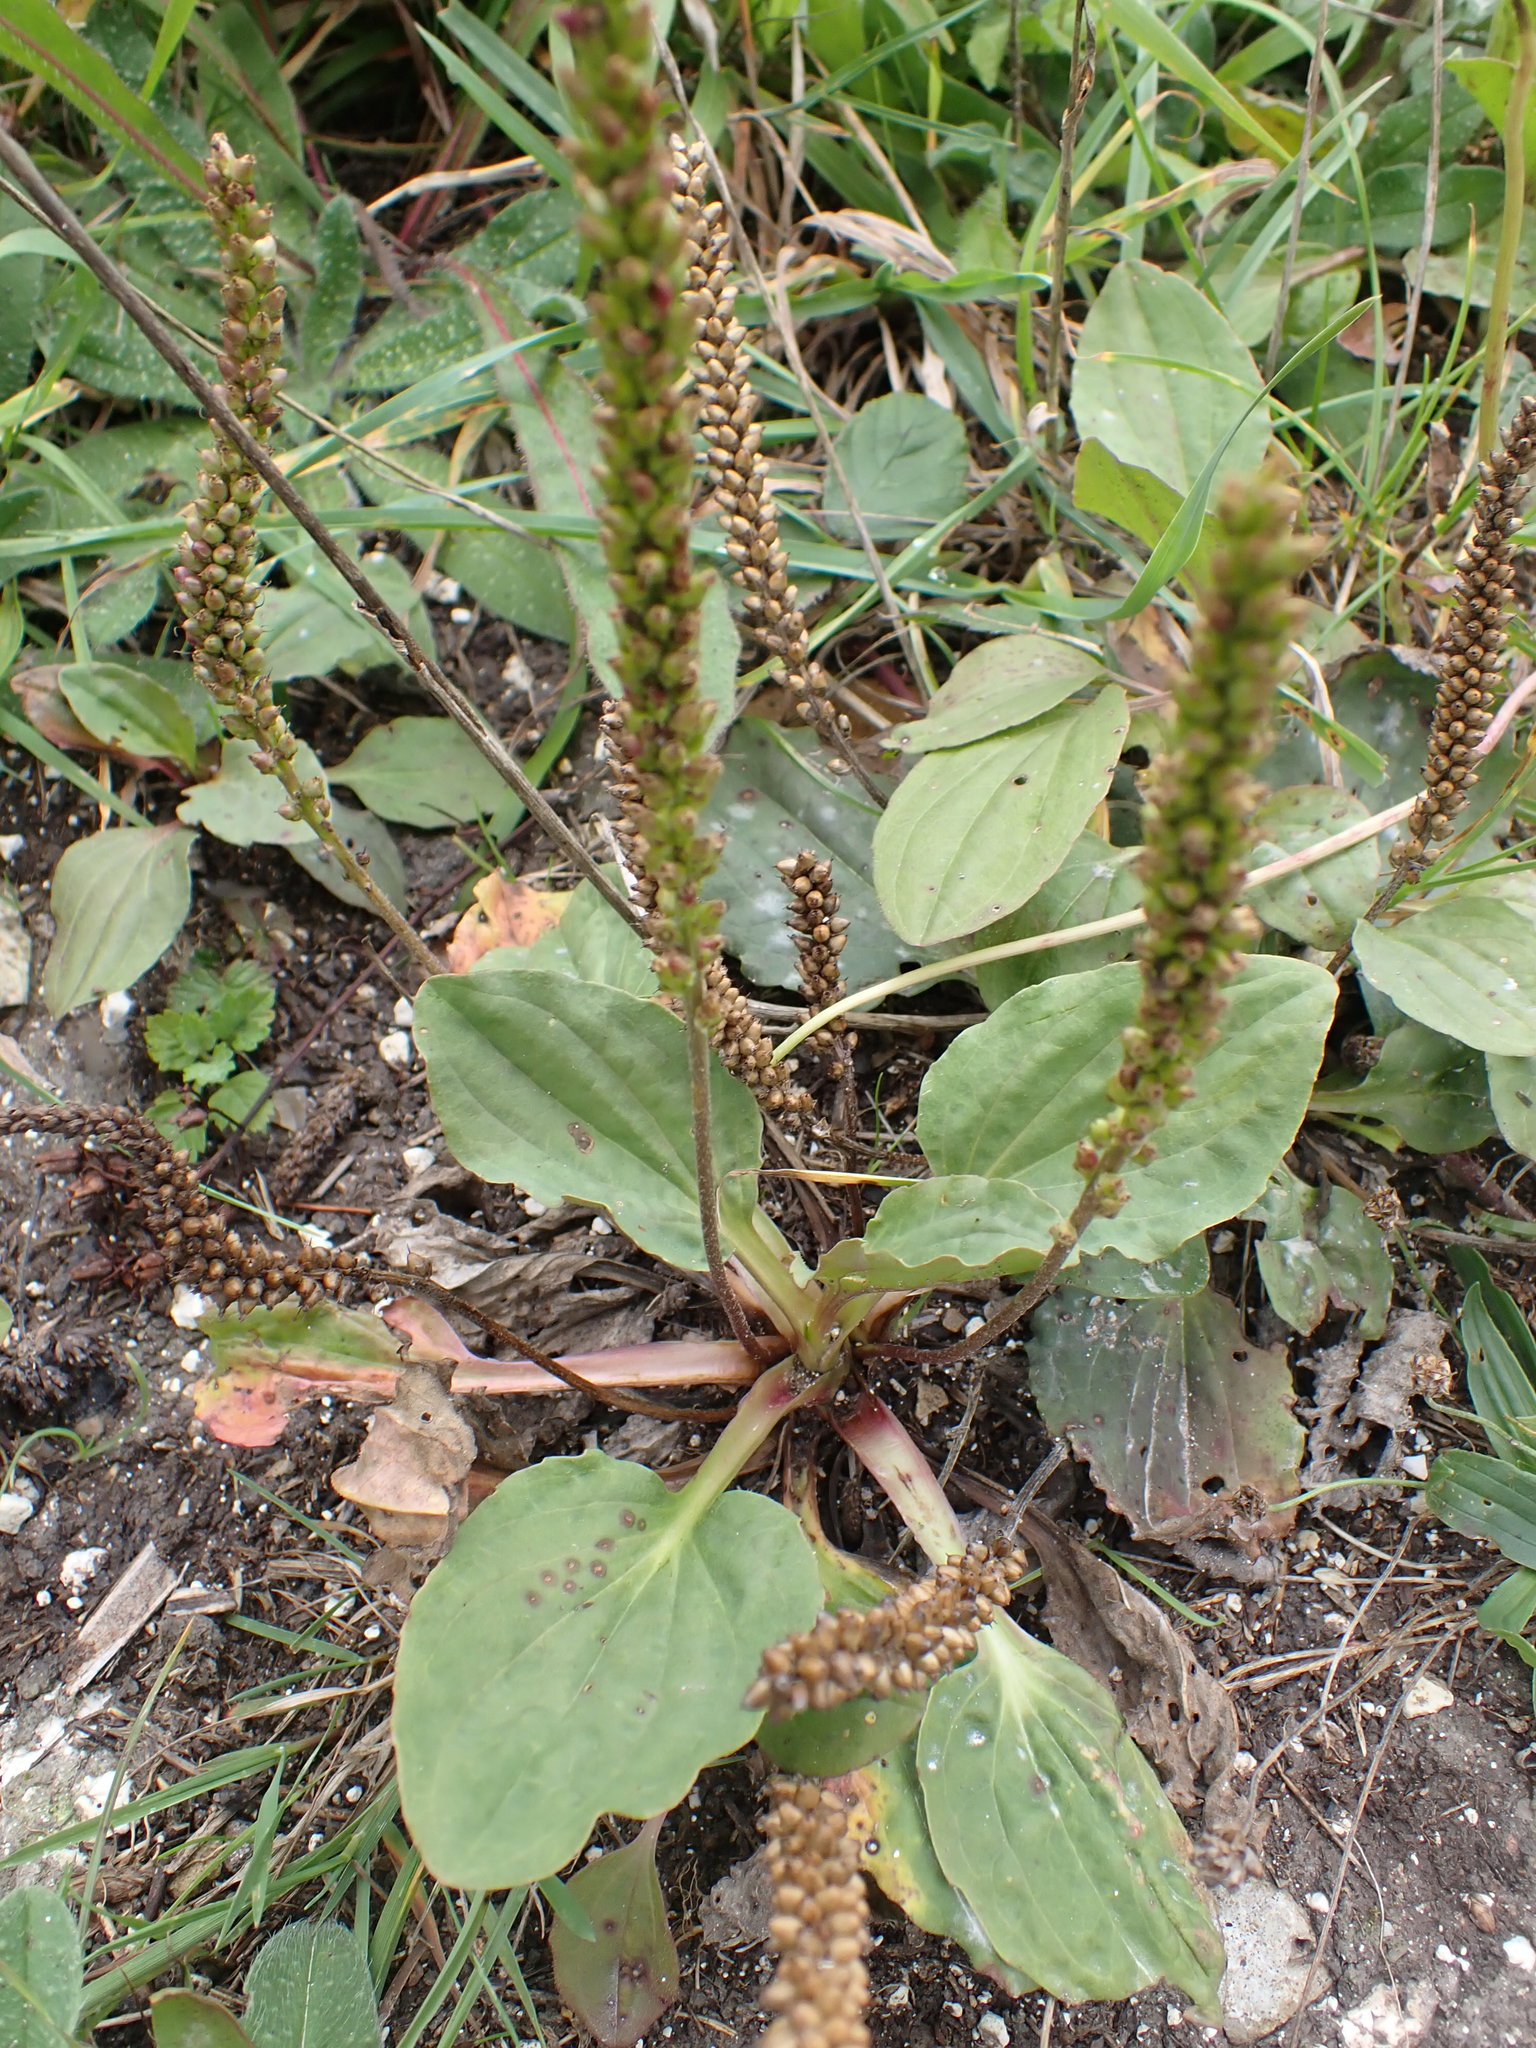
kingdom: Plantae
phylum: Tracheophyta
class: Magnoliopsida
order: Lamiales
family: Plantaginaceae
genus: Plantago
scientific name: Plantago major
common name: Common plantain
